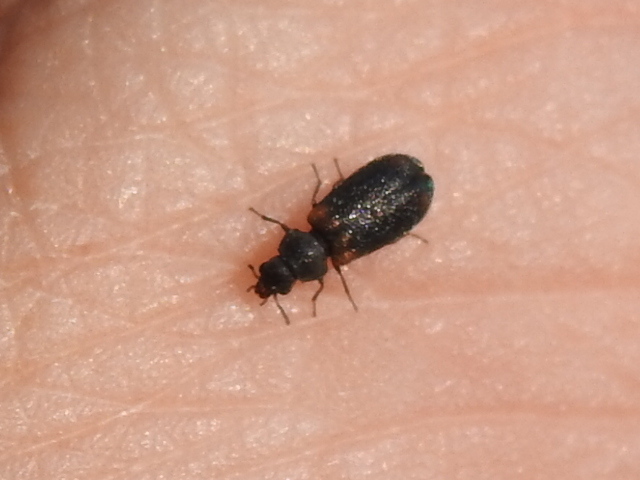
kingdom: Animalia
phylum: Arthropoda
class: Insecta
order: Coleoptera
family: Melyridae
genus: Melyrodes
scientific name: Melyrodes
